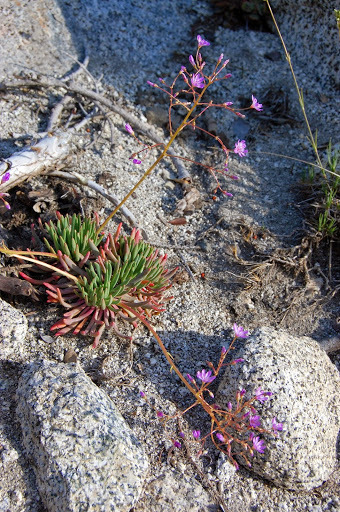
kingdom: Plantae
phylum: Tracheophyta
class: Magnoliopsida
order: Caryophyllales
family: Montiaceae
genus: Lewisia
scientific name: Lewisia leeana
